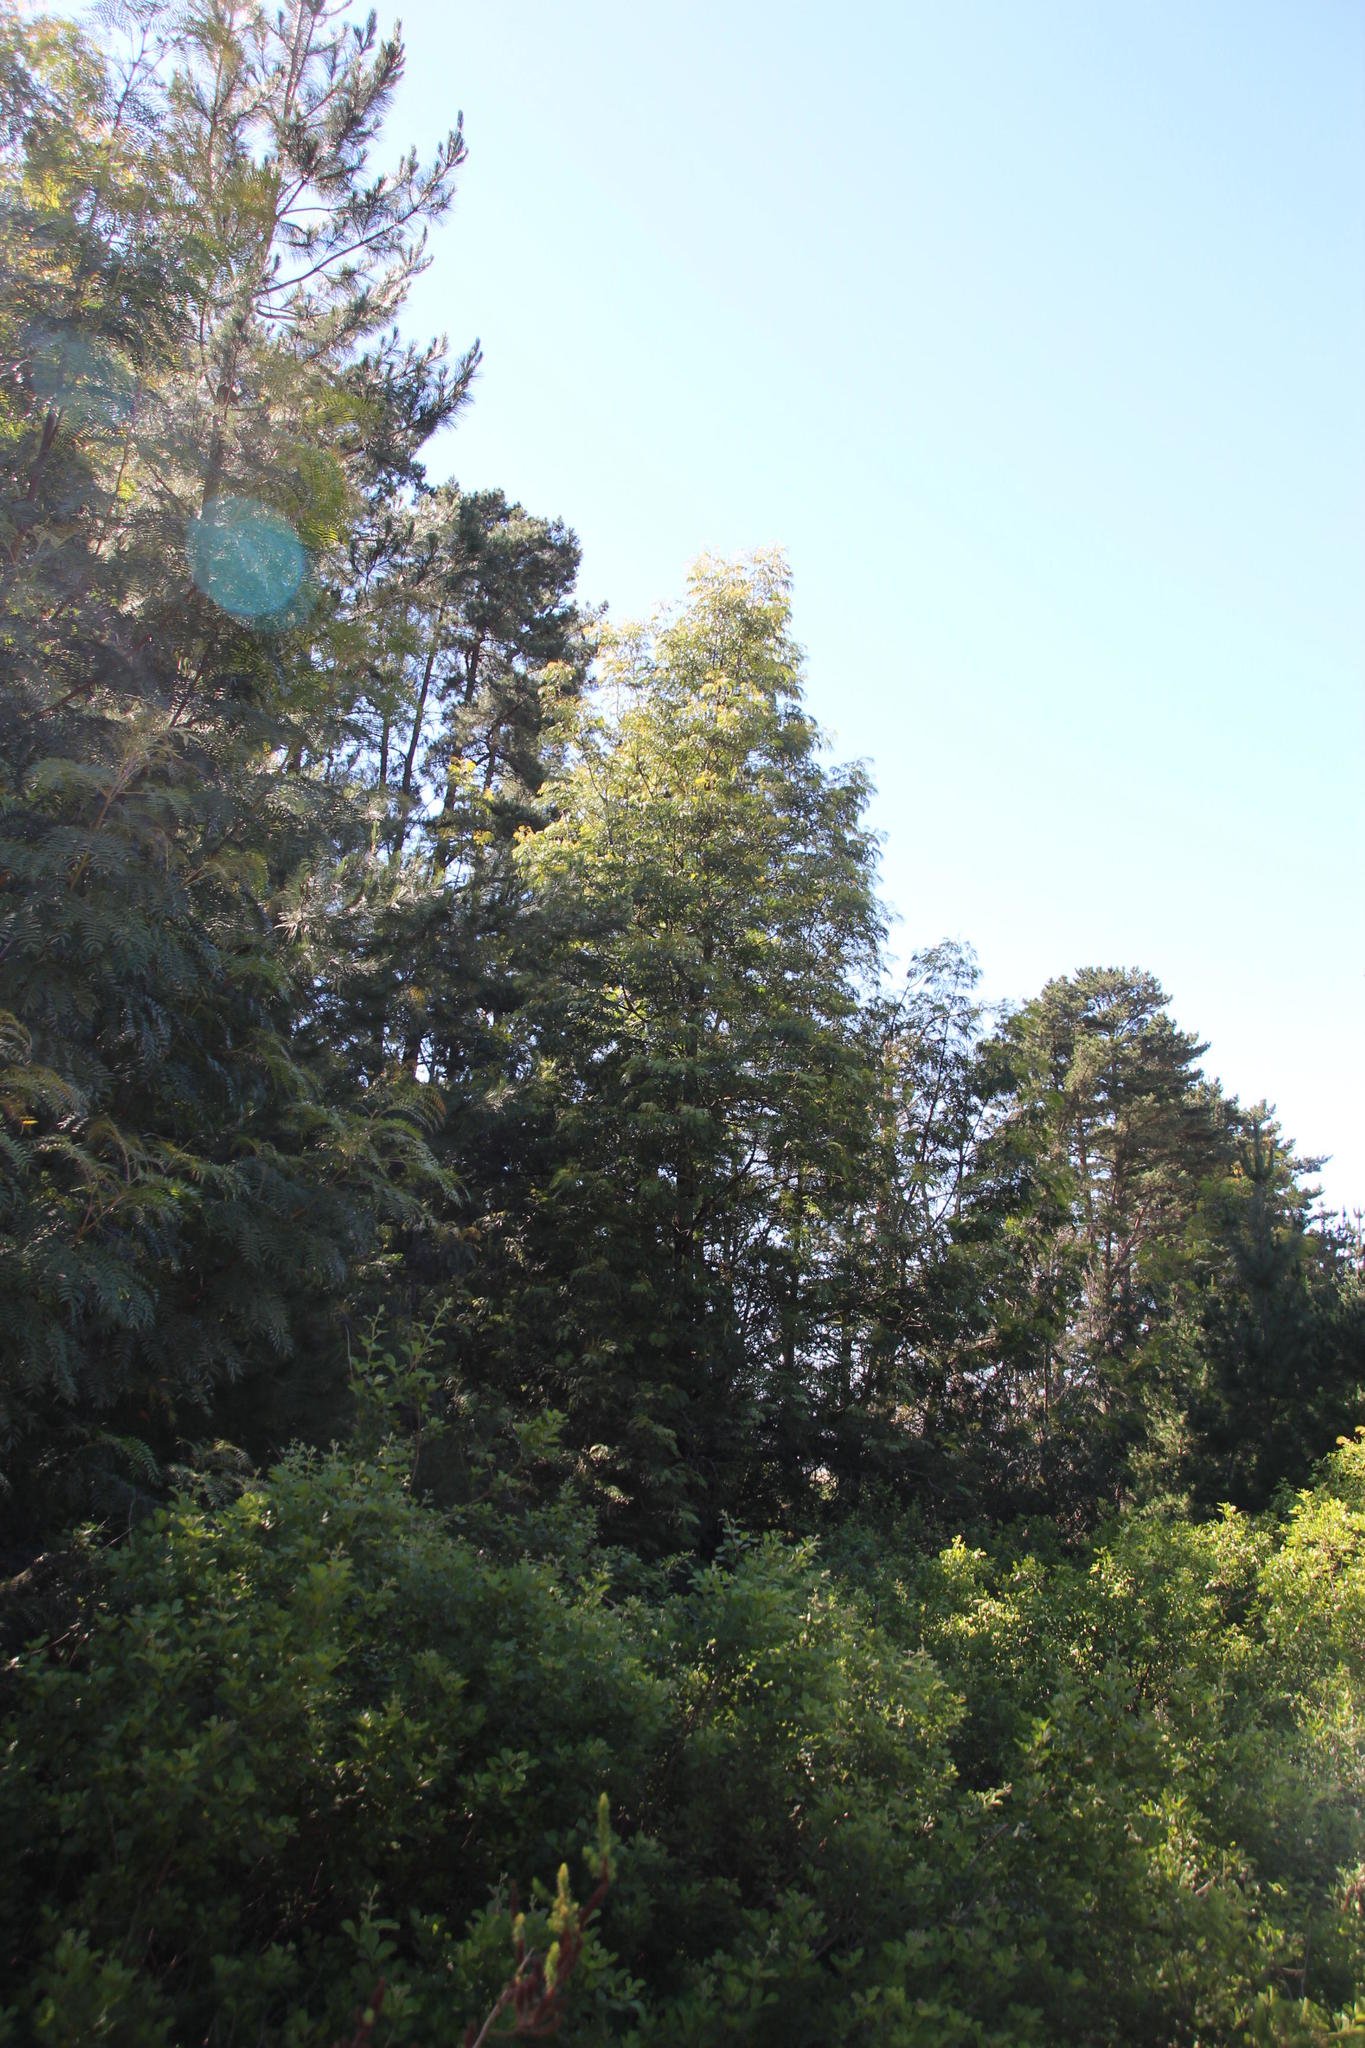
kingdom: Plantae
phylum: Tracheophyta
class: Magnoliopsida
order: Fabales
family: Fabaceae
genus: Acacia
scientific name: Acacia elata
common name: Cedar wattle
